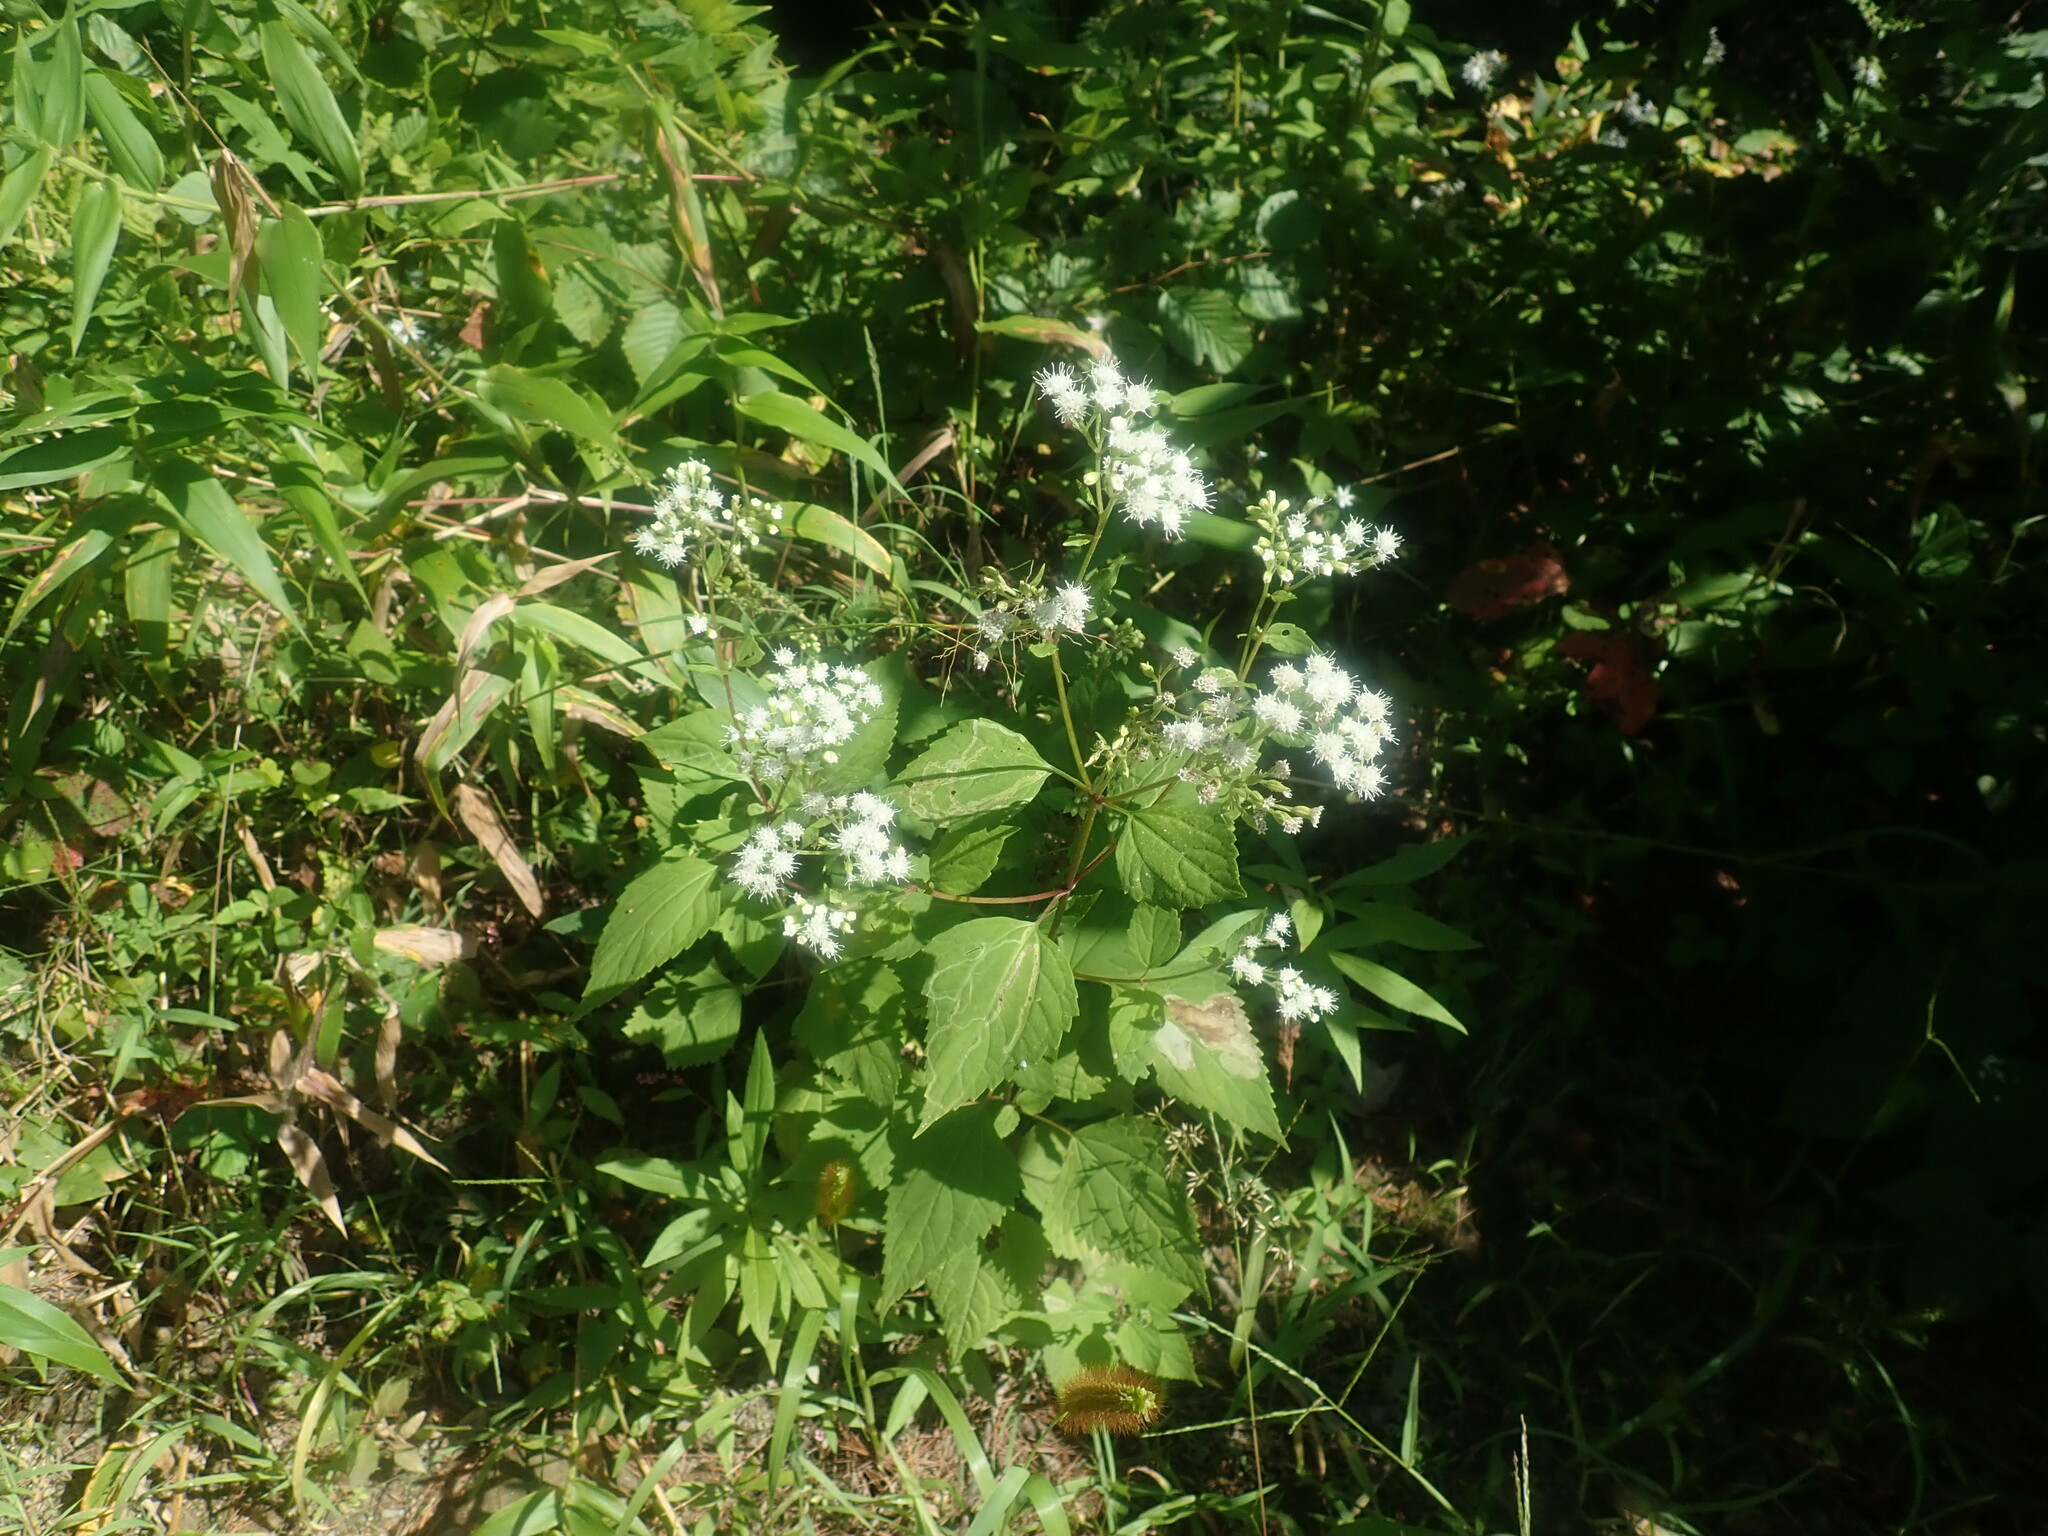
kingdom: Plantae
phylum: Tracheophyta
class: Magnoliopsida
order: Asterales
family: Asteraceae
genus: Ageratina
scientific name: Ageratina altissima
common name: White snakeroot
